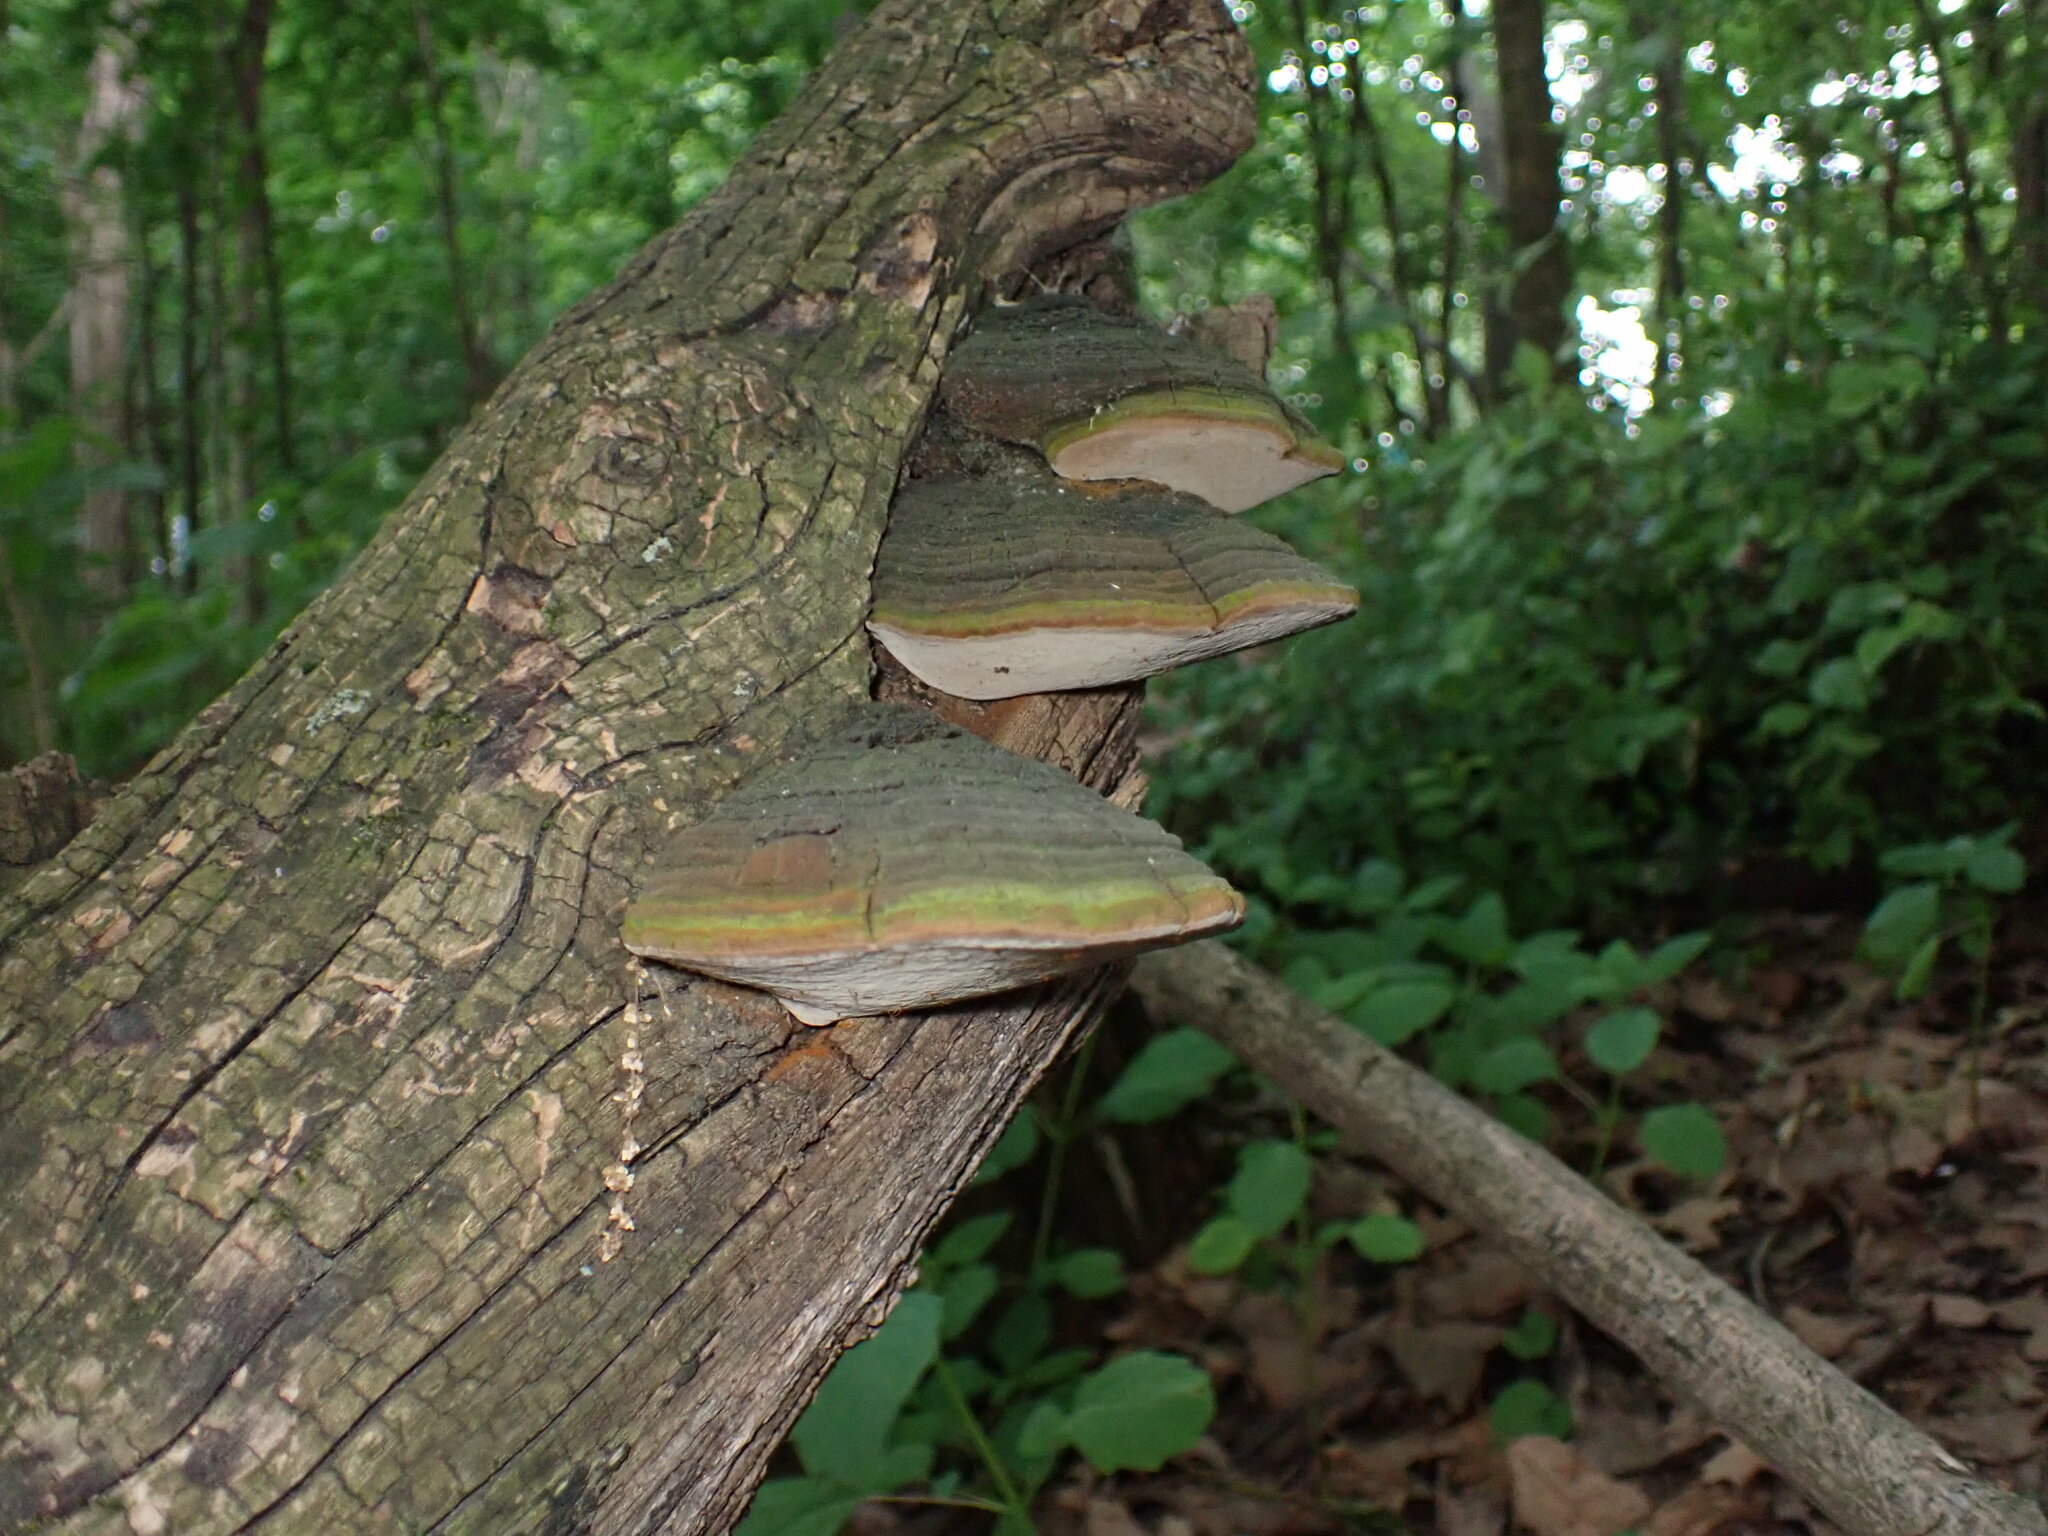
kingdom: Fungi
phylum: Basidiomycota
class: Agaricomycetes
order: Hymenochaetales
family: Hymenochaetaceae
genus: Phellinus
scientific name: Phellinus robiniae
